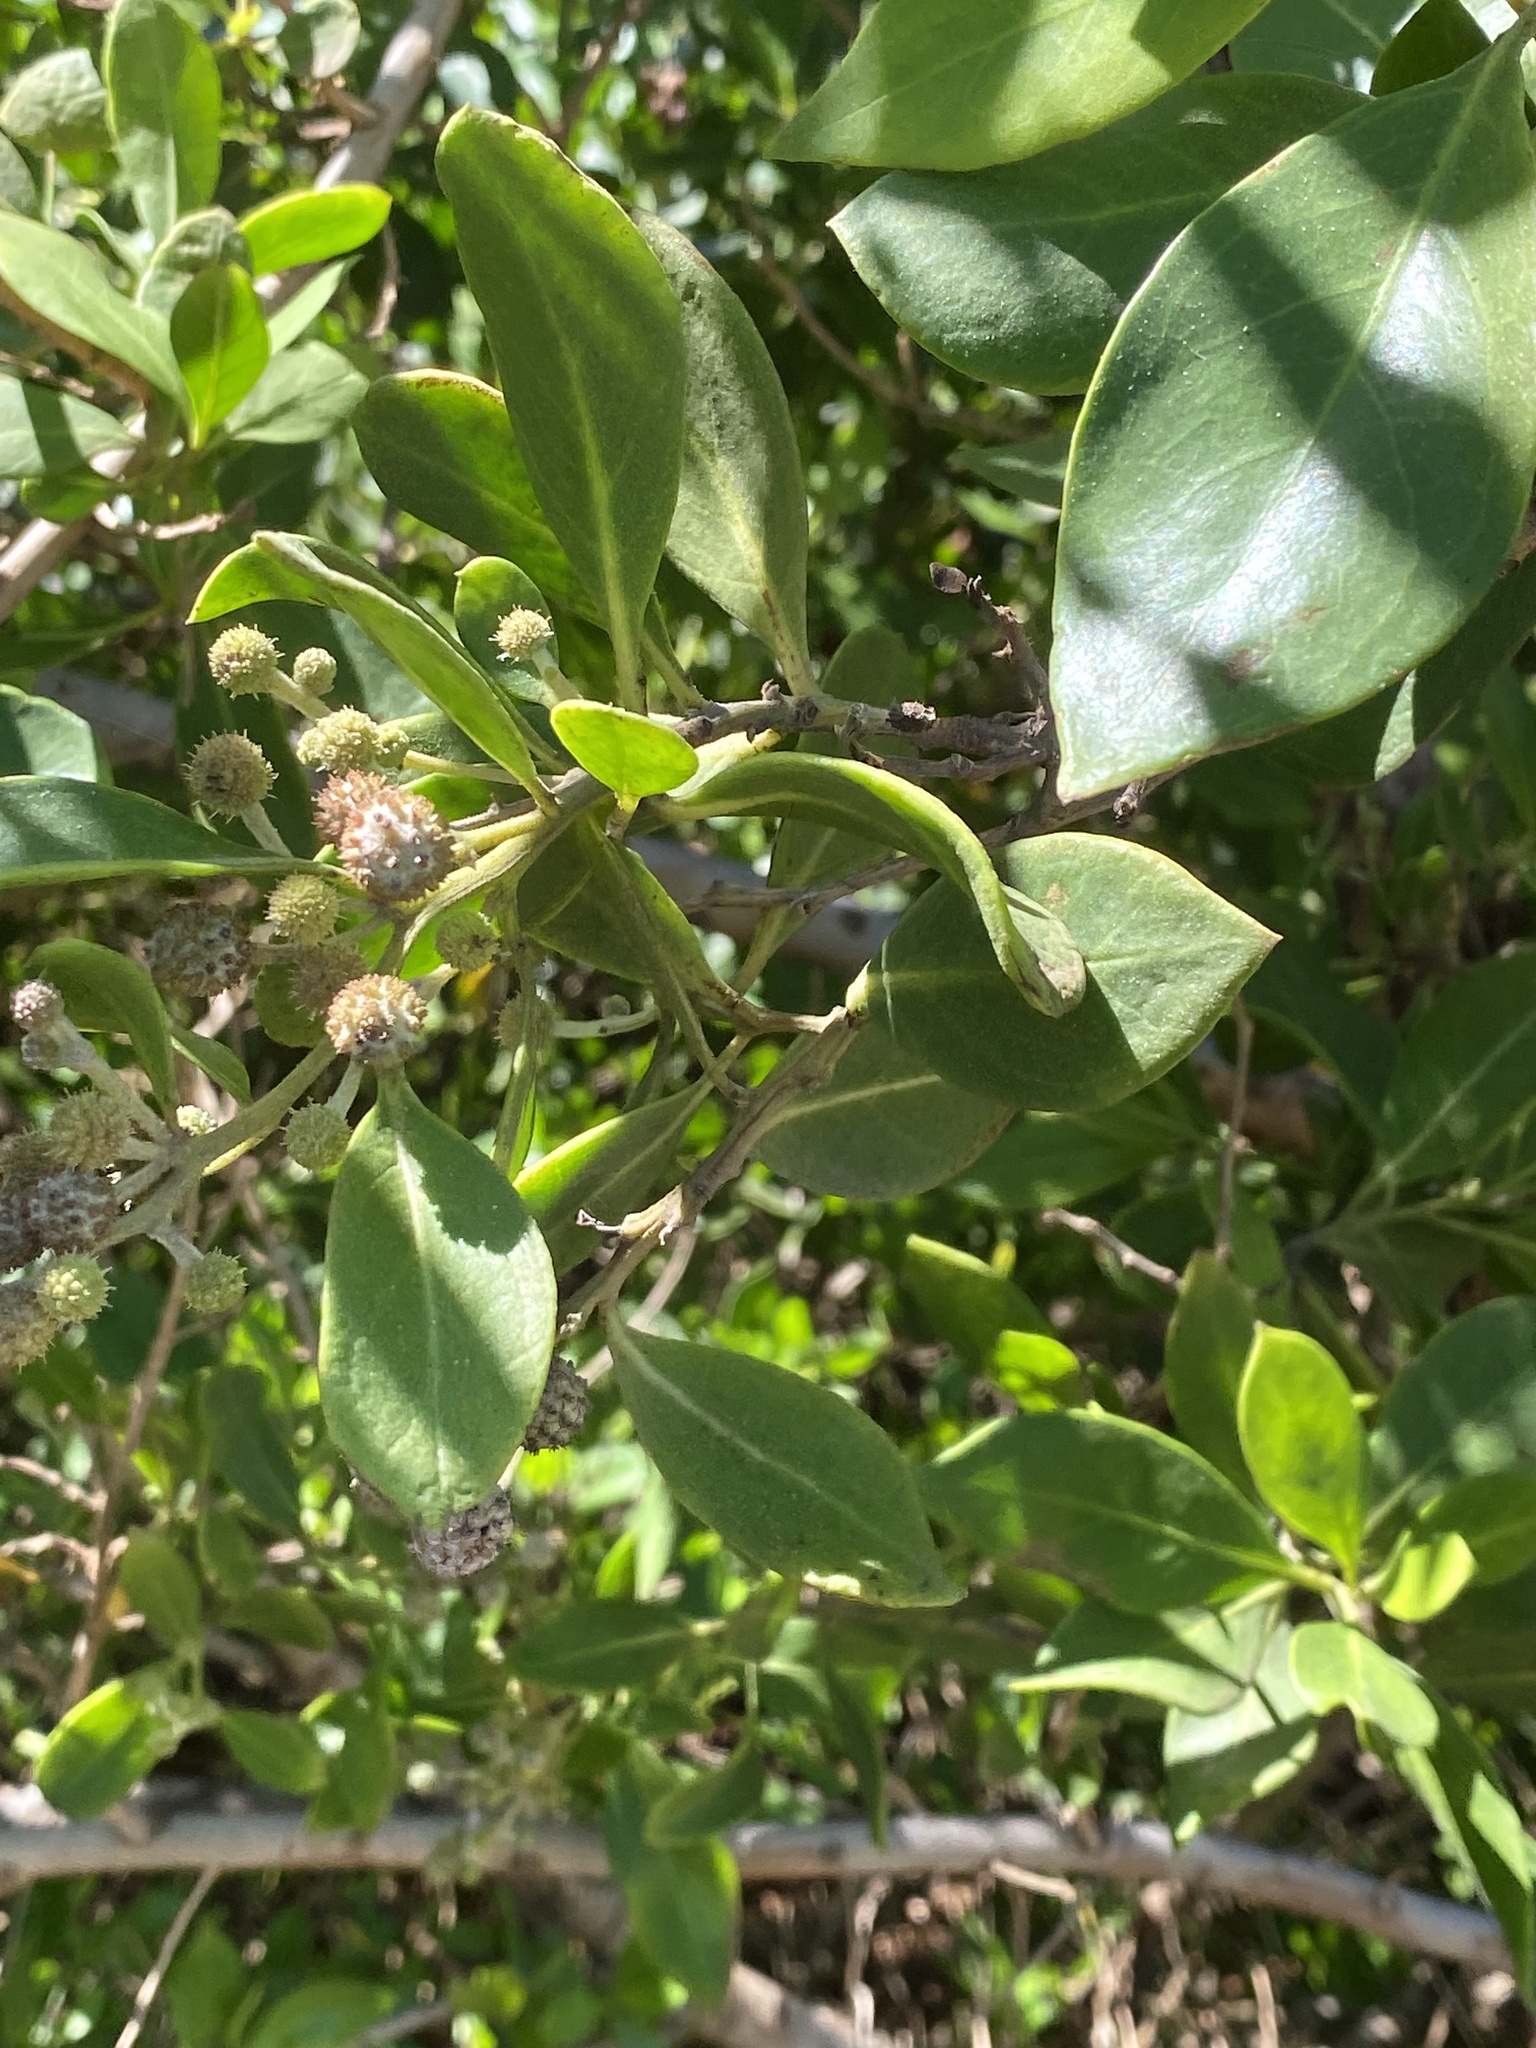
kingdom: Plantae
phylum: Tracheophyta
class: Magnoliopsida
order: Myrtales
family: Combretaceae
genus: Conocarpus
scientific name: Conocarpus erectus
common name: Button mangrove
